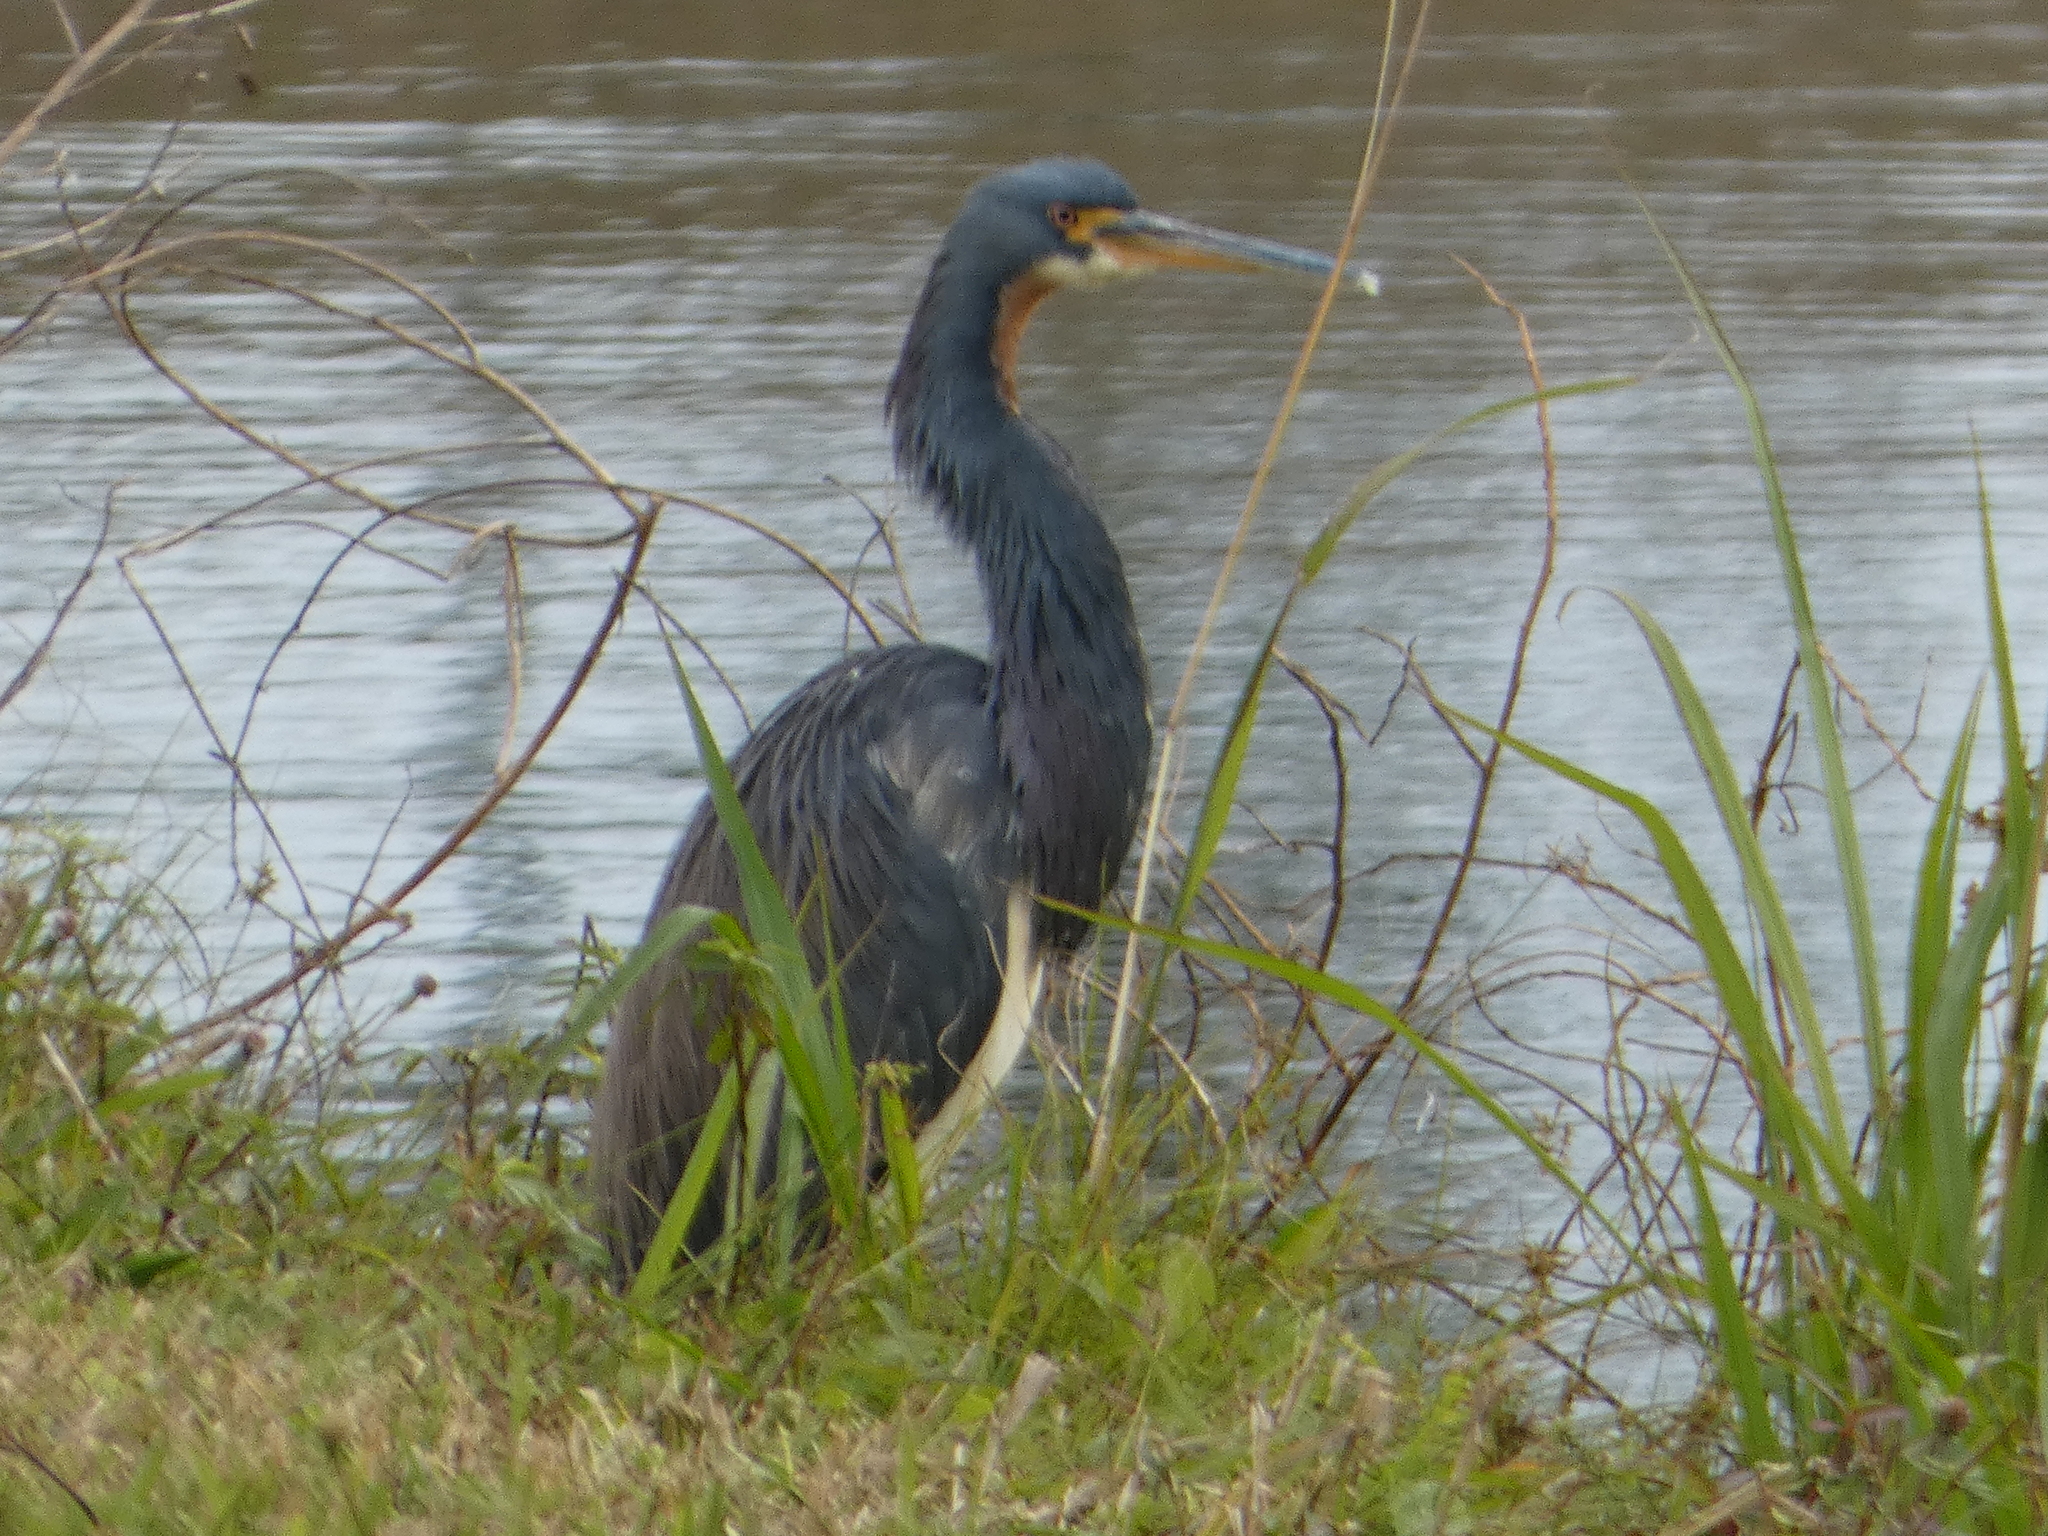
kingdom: Animalia
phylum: Chordata
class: Aves
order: Pelecaniformes
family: Ardeidae
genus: Egretta
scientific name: Egretta tricolor
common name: Tricolored heron
